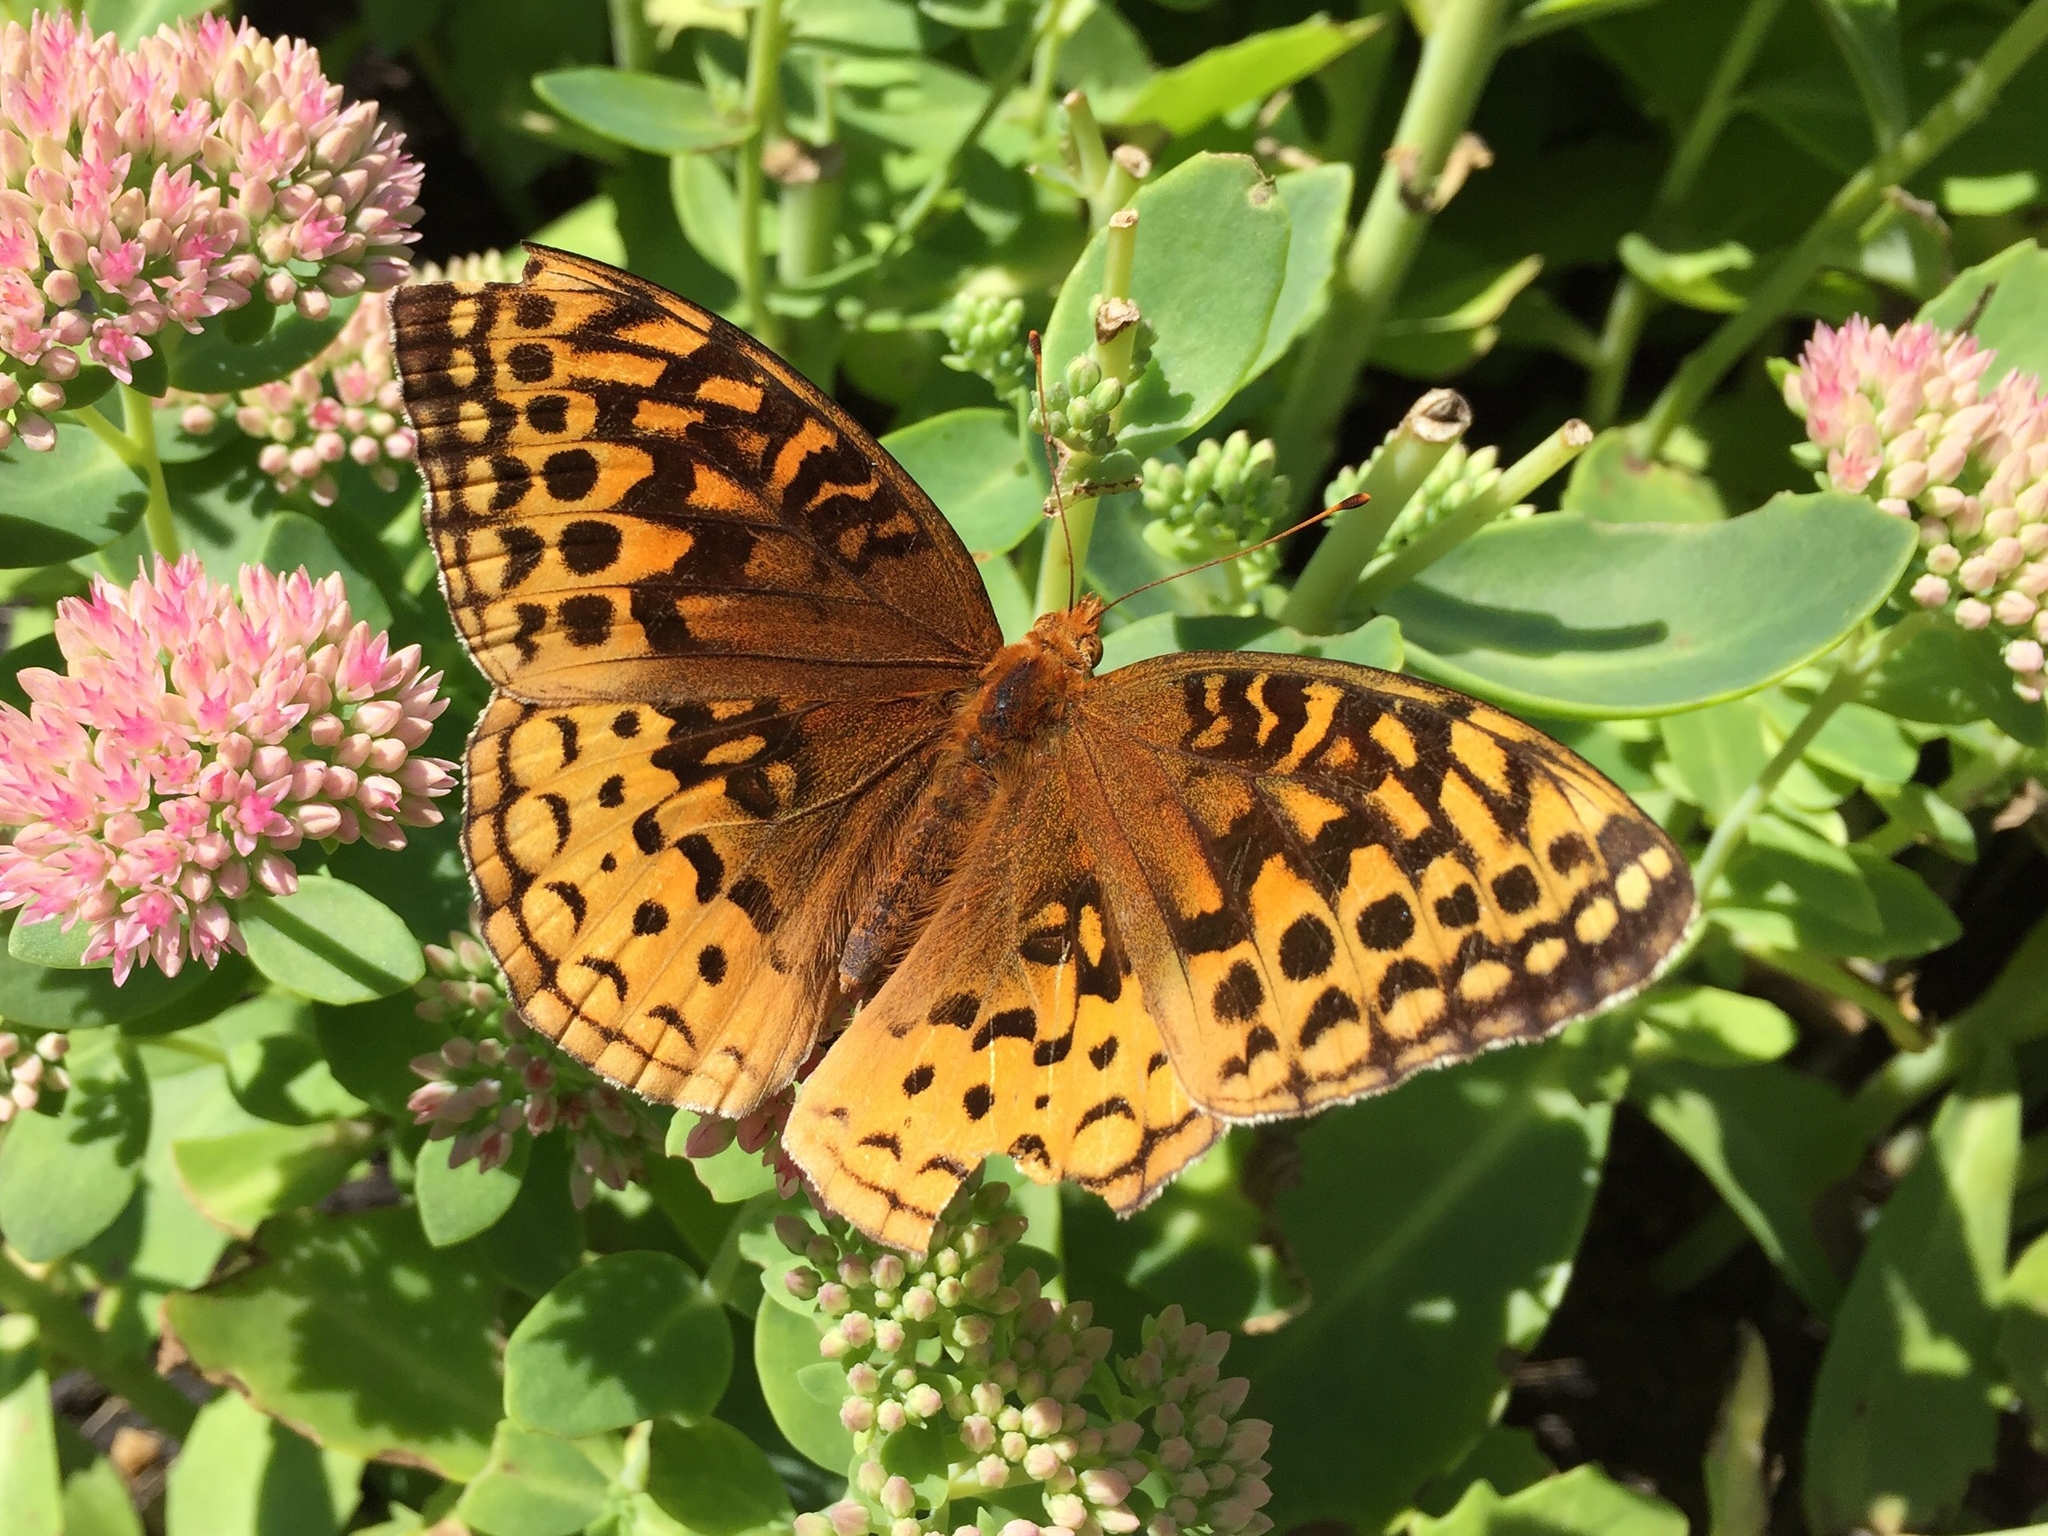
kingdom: Animalia
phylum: Arthropoda
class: Insecta
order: Lepidoptera
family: Nymphalidae
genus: Speyeria
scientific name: Speyeria cybele
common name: Great spangled fritillary
